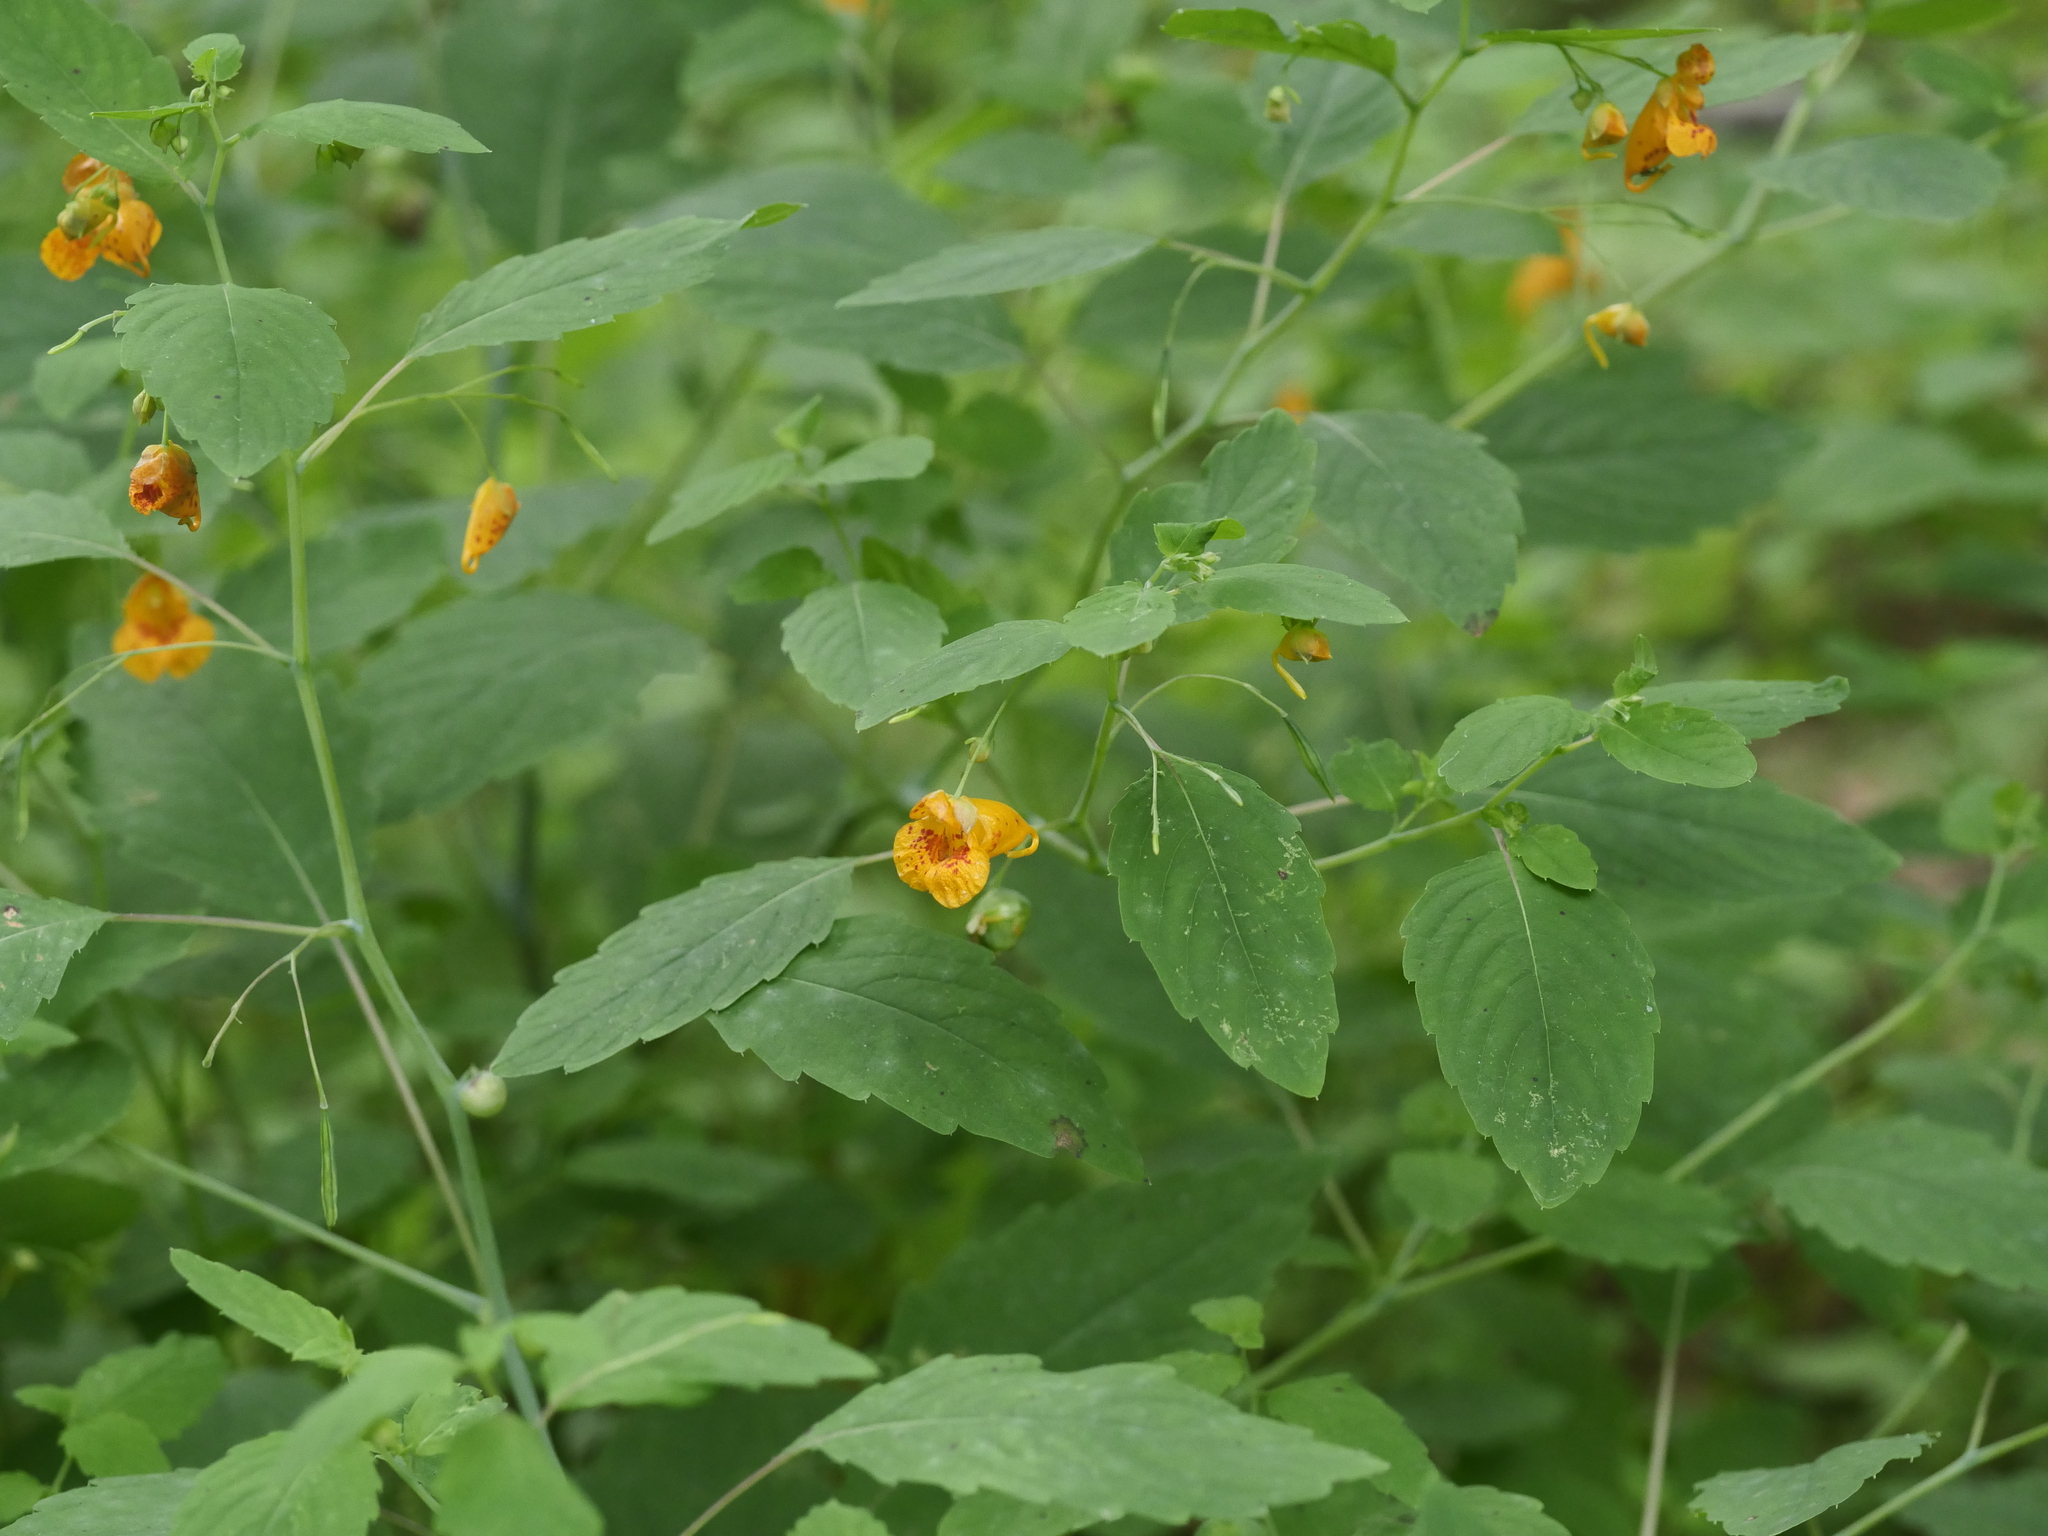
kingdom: Plantae
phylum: Tracheophyta
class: Magnoliopsida
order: Ericales
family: Balsaminaceae
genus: Impatiens
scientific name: Impatiens capensis
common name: Orange balsam
